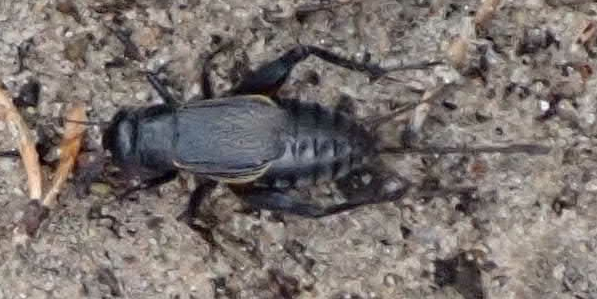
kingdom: Animalia
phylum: Arthropoda
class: Insecta
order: Orthoptera
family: Gryllidae
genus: Gryllus
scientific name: Gryllus pennsylvanicus
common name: Fall field cricket
